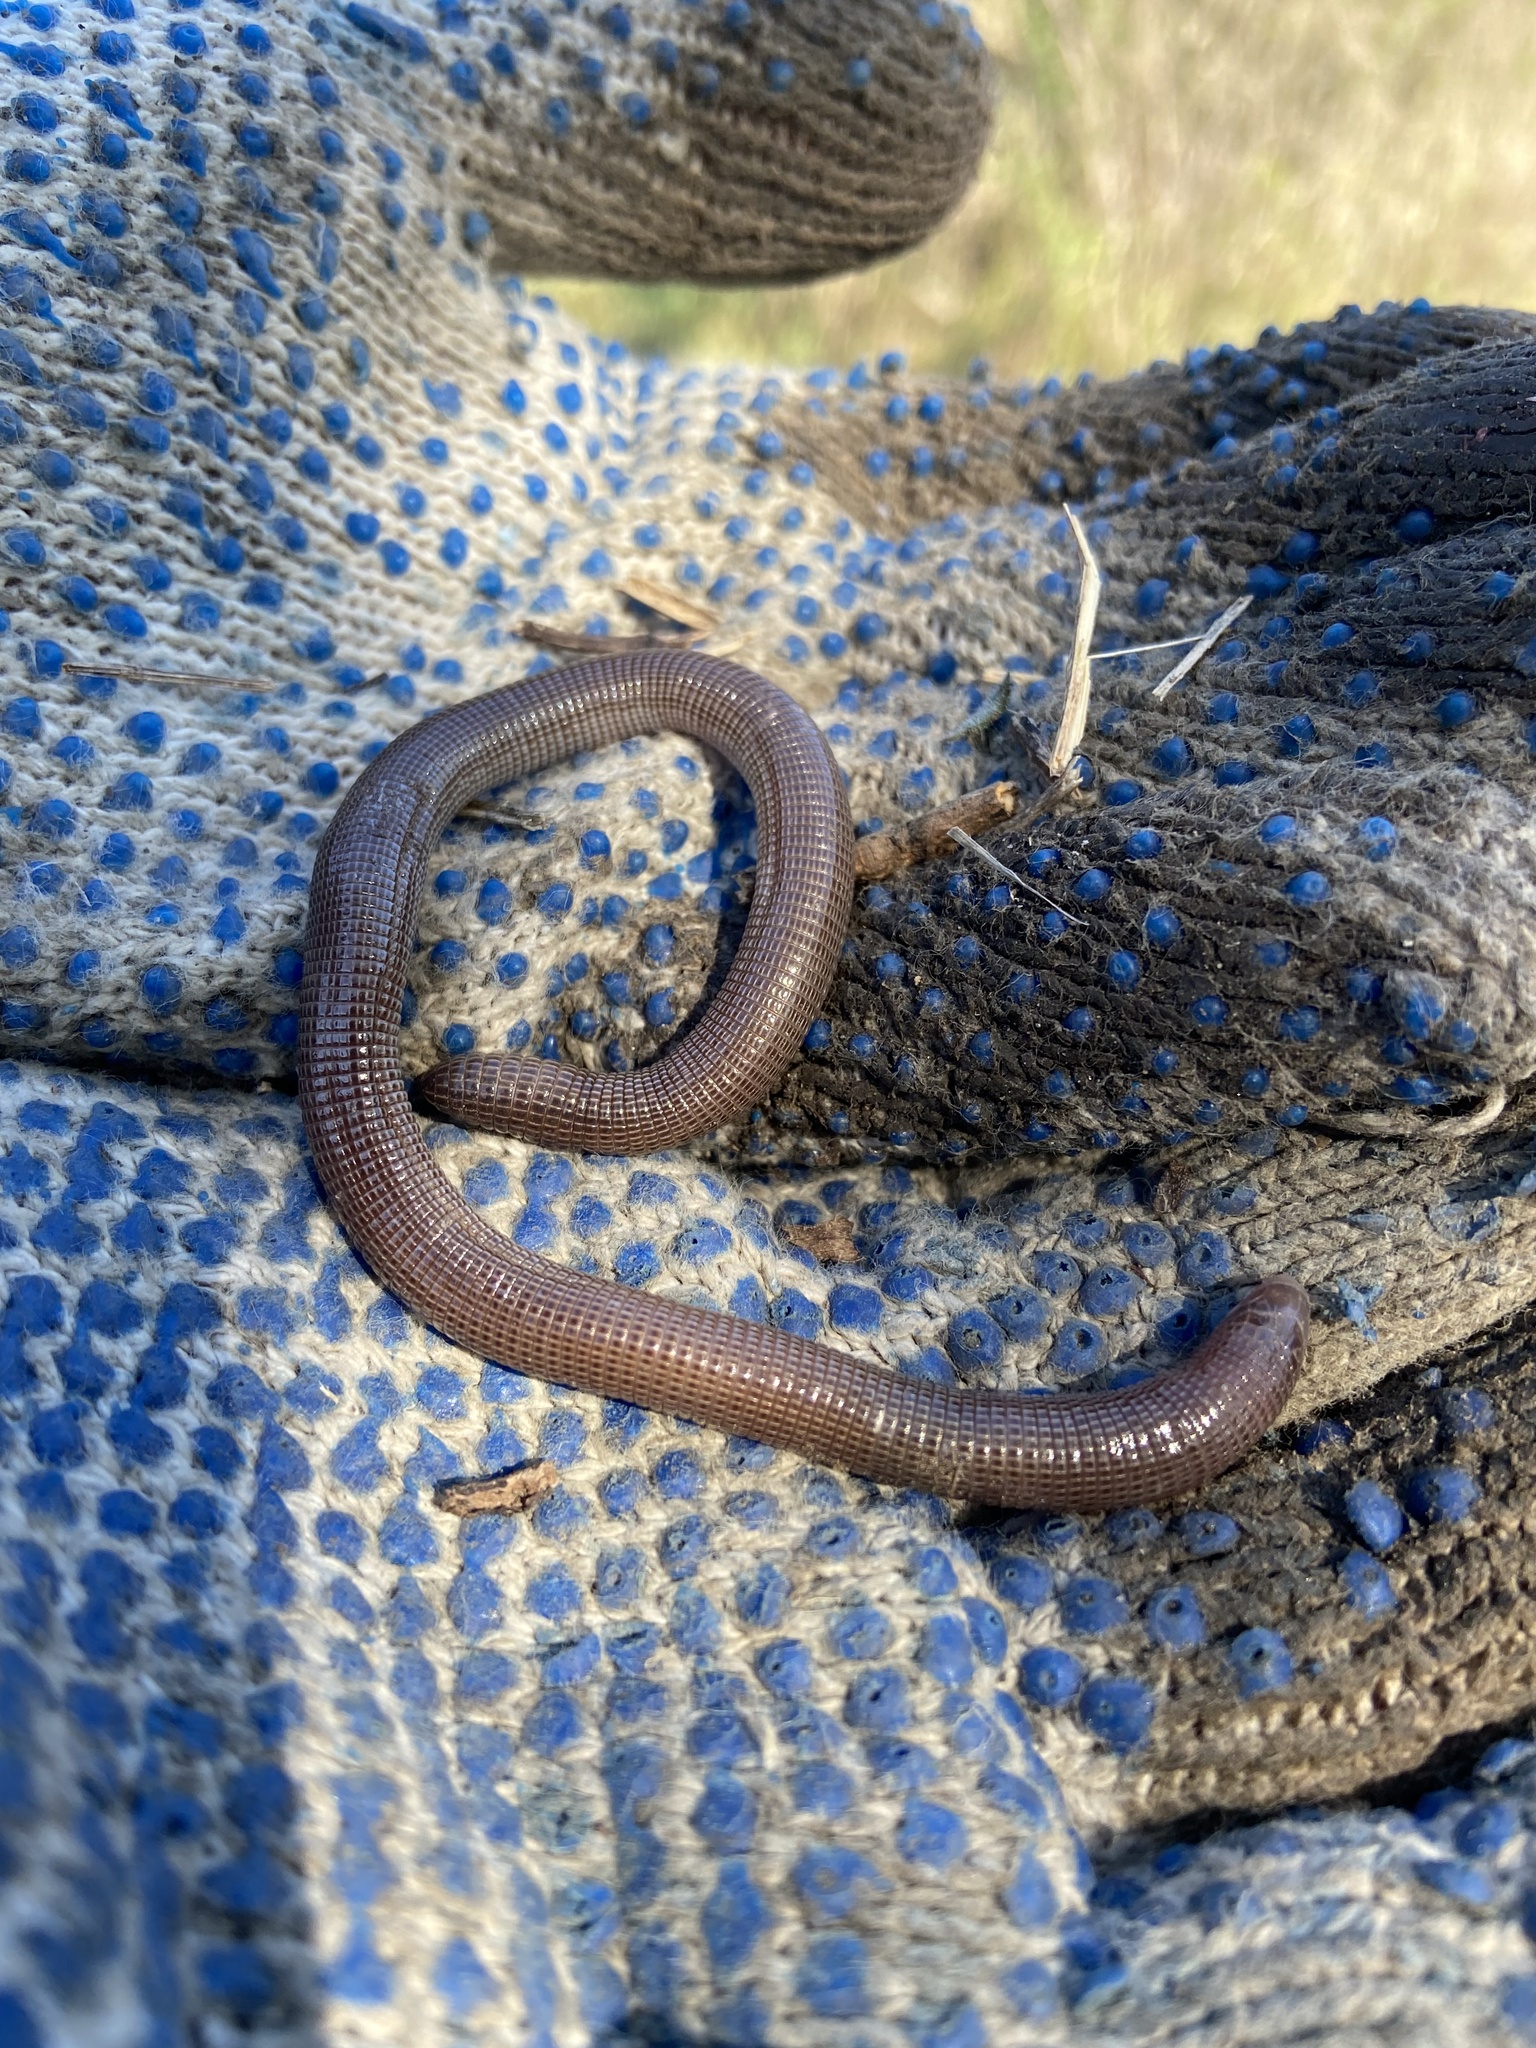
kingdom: Animalia
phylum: Chordata
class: Squamata
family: Amphisbaenidae
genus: Amphisbaena
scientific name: Amphisbaena darwinii
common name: Darwin's ringed worm lizard
